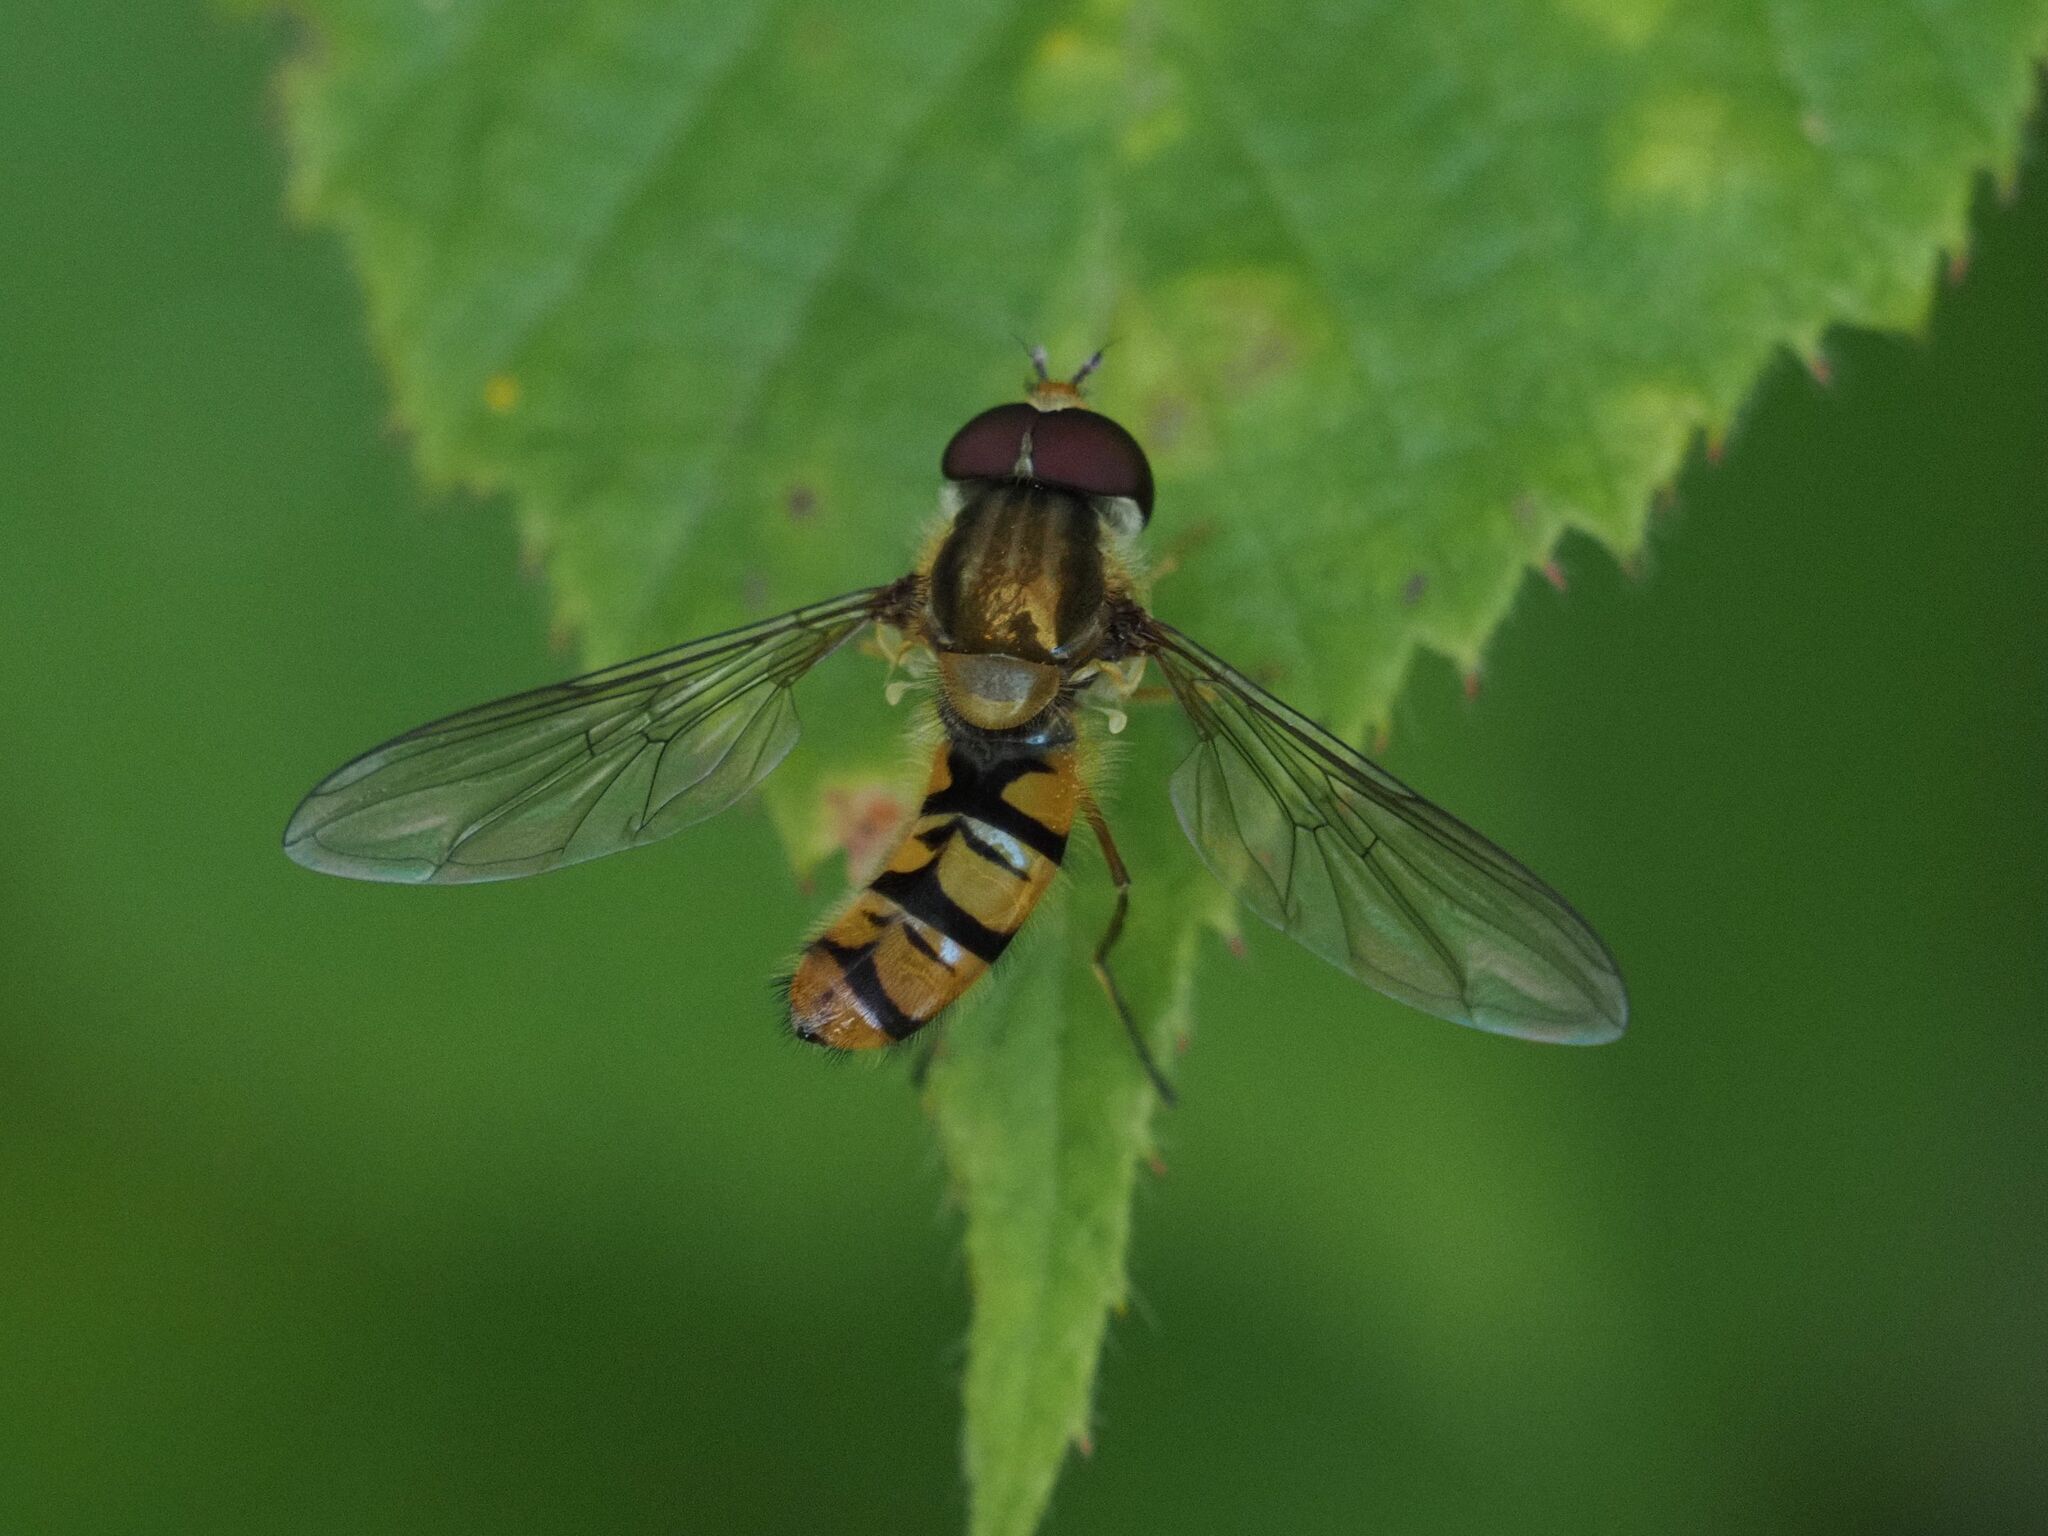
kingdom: Animalia
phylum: Arthropoda
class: Insecta
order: Diptera
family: Syrphidae
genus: Episyrphus
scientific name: Episyrphus balteatus
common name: Marmalade hoverfly
